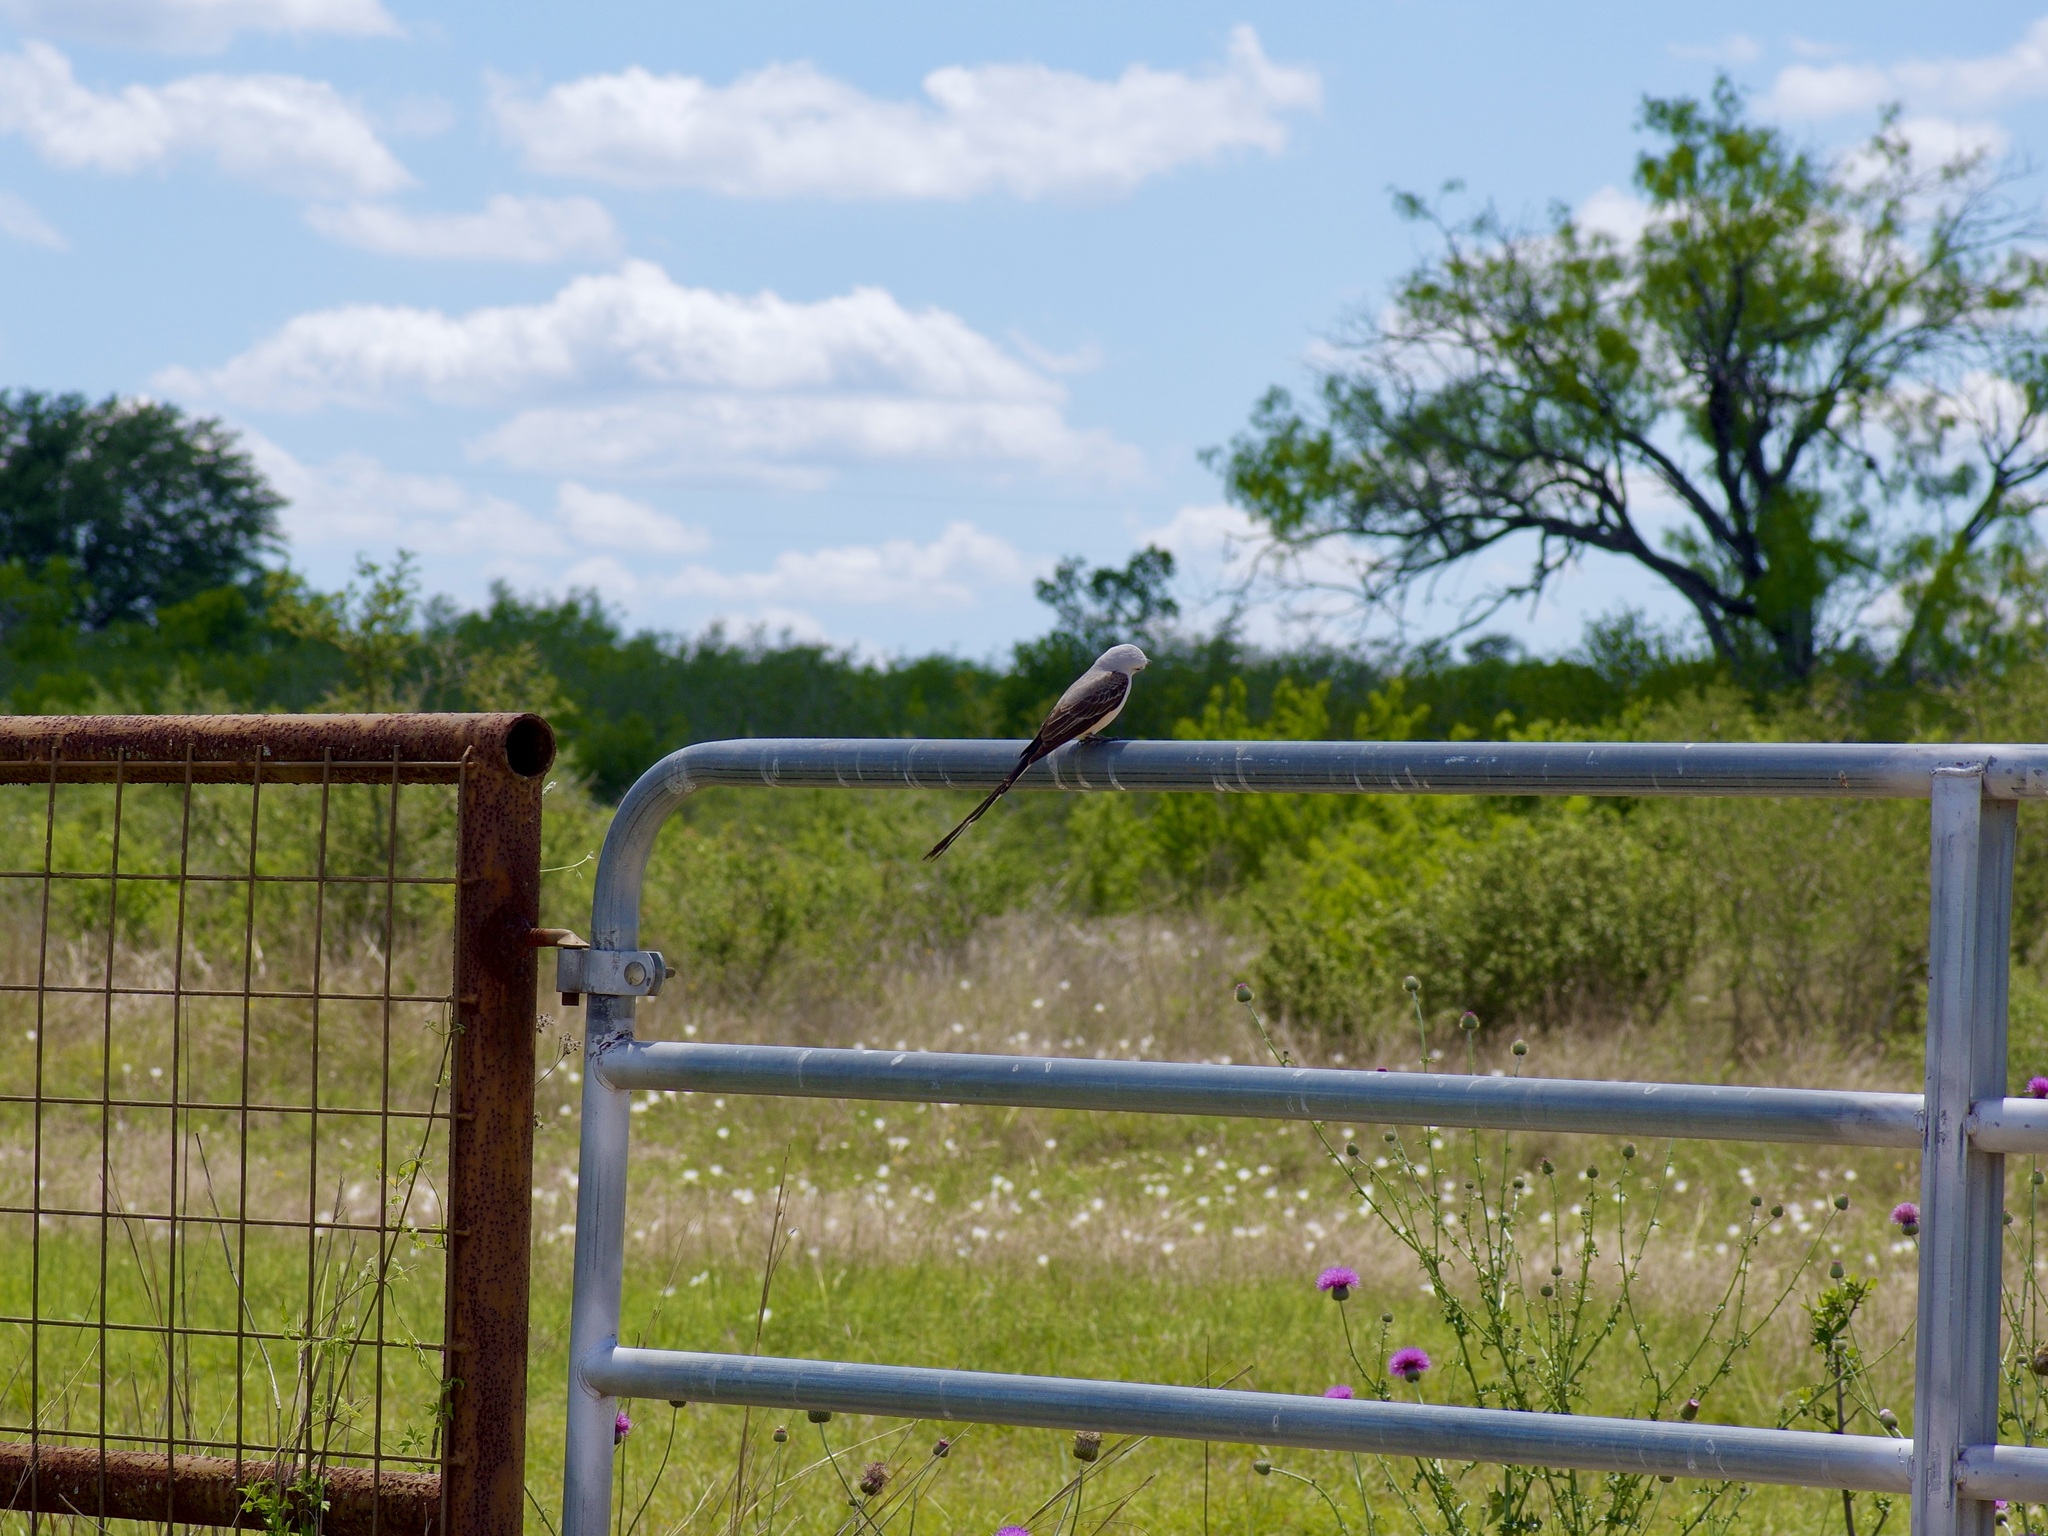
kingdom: Animalia
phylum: Chordata
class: Aves
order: Passeriformes
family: Tyrannidae
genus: Tyrannus
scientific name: Tyrannus forficatus
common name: Scissor-tailed flycatcher
